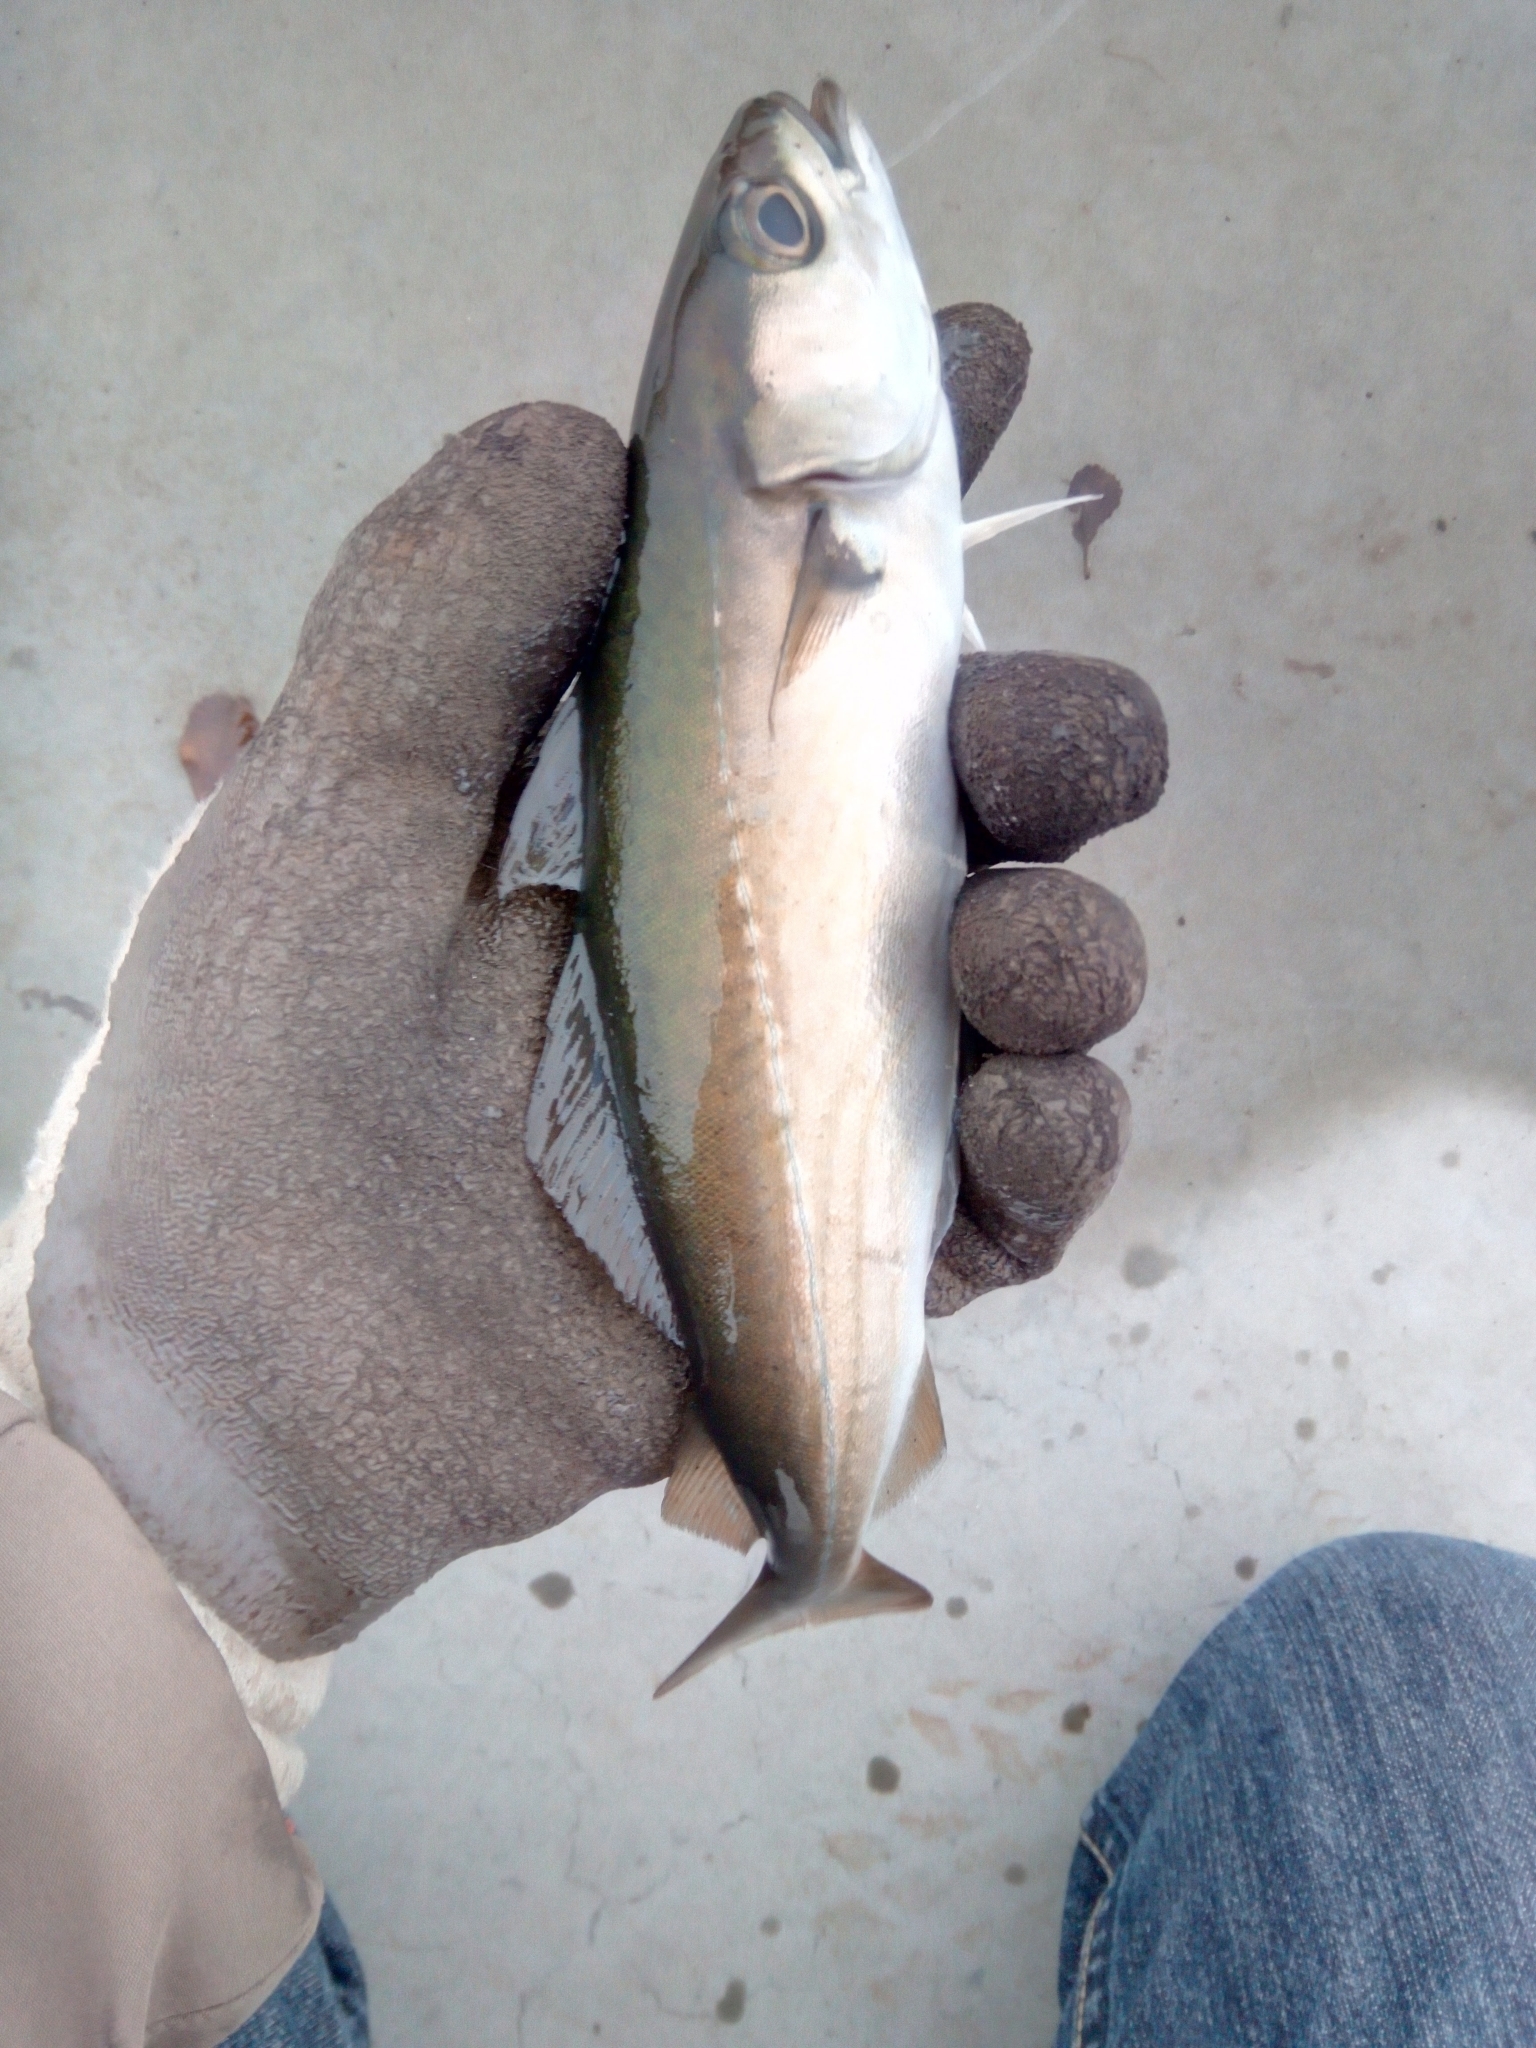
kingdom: Animalia
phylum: Chordata
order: Gadiformes
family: Gadidae
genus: Pollachius
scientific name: Pollachius virens
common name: Saithe
